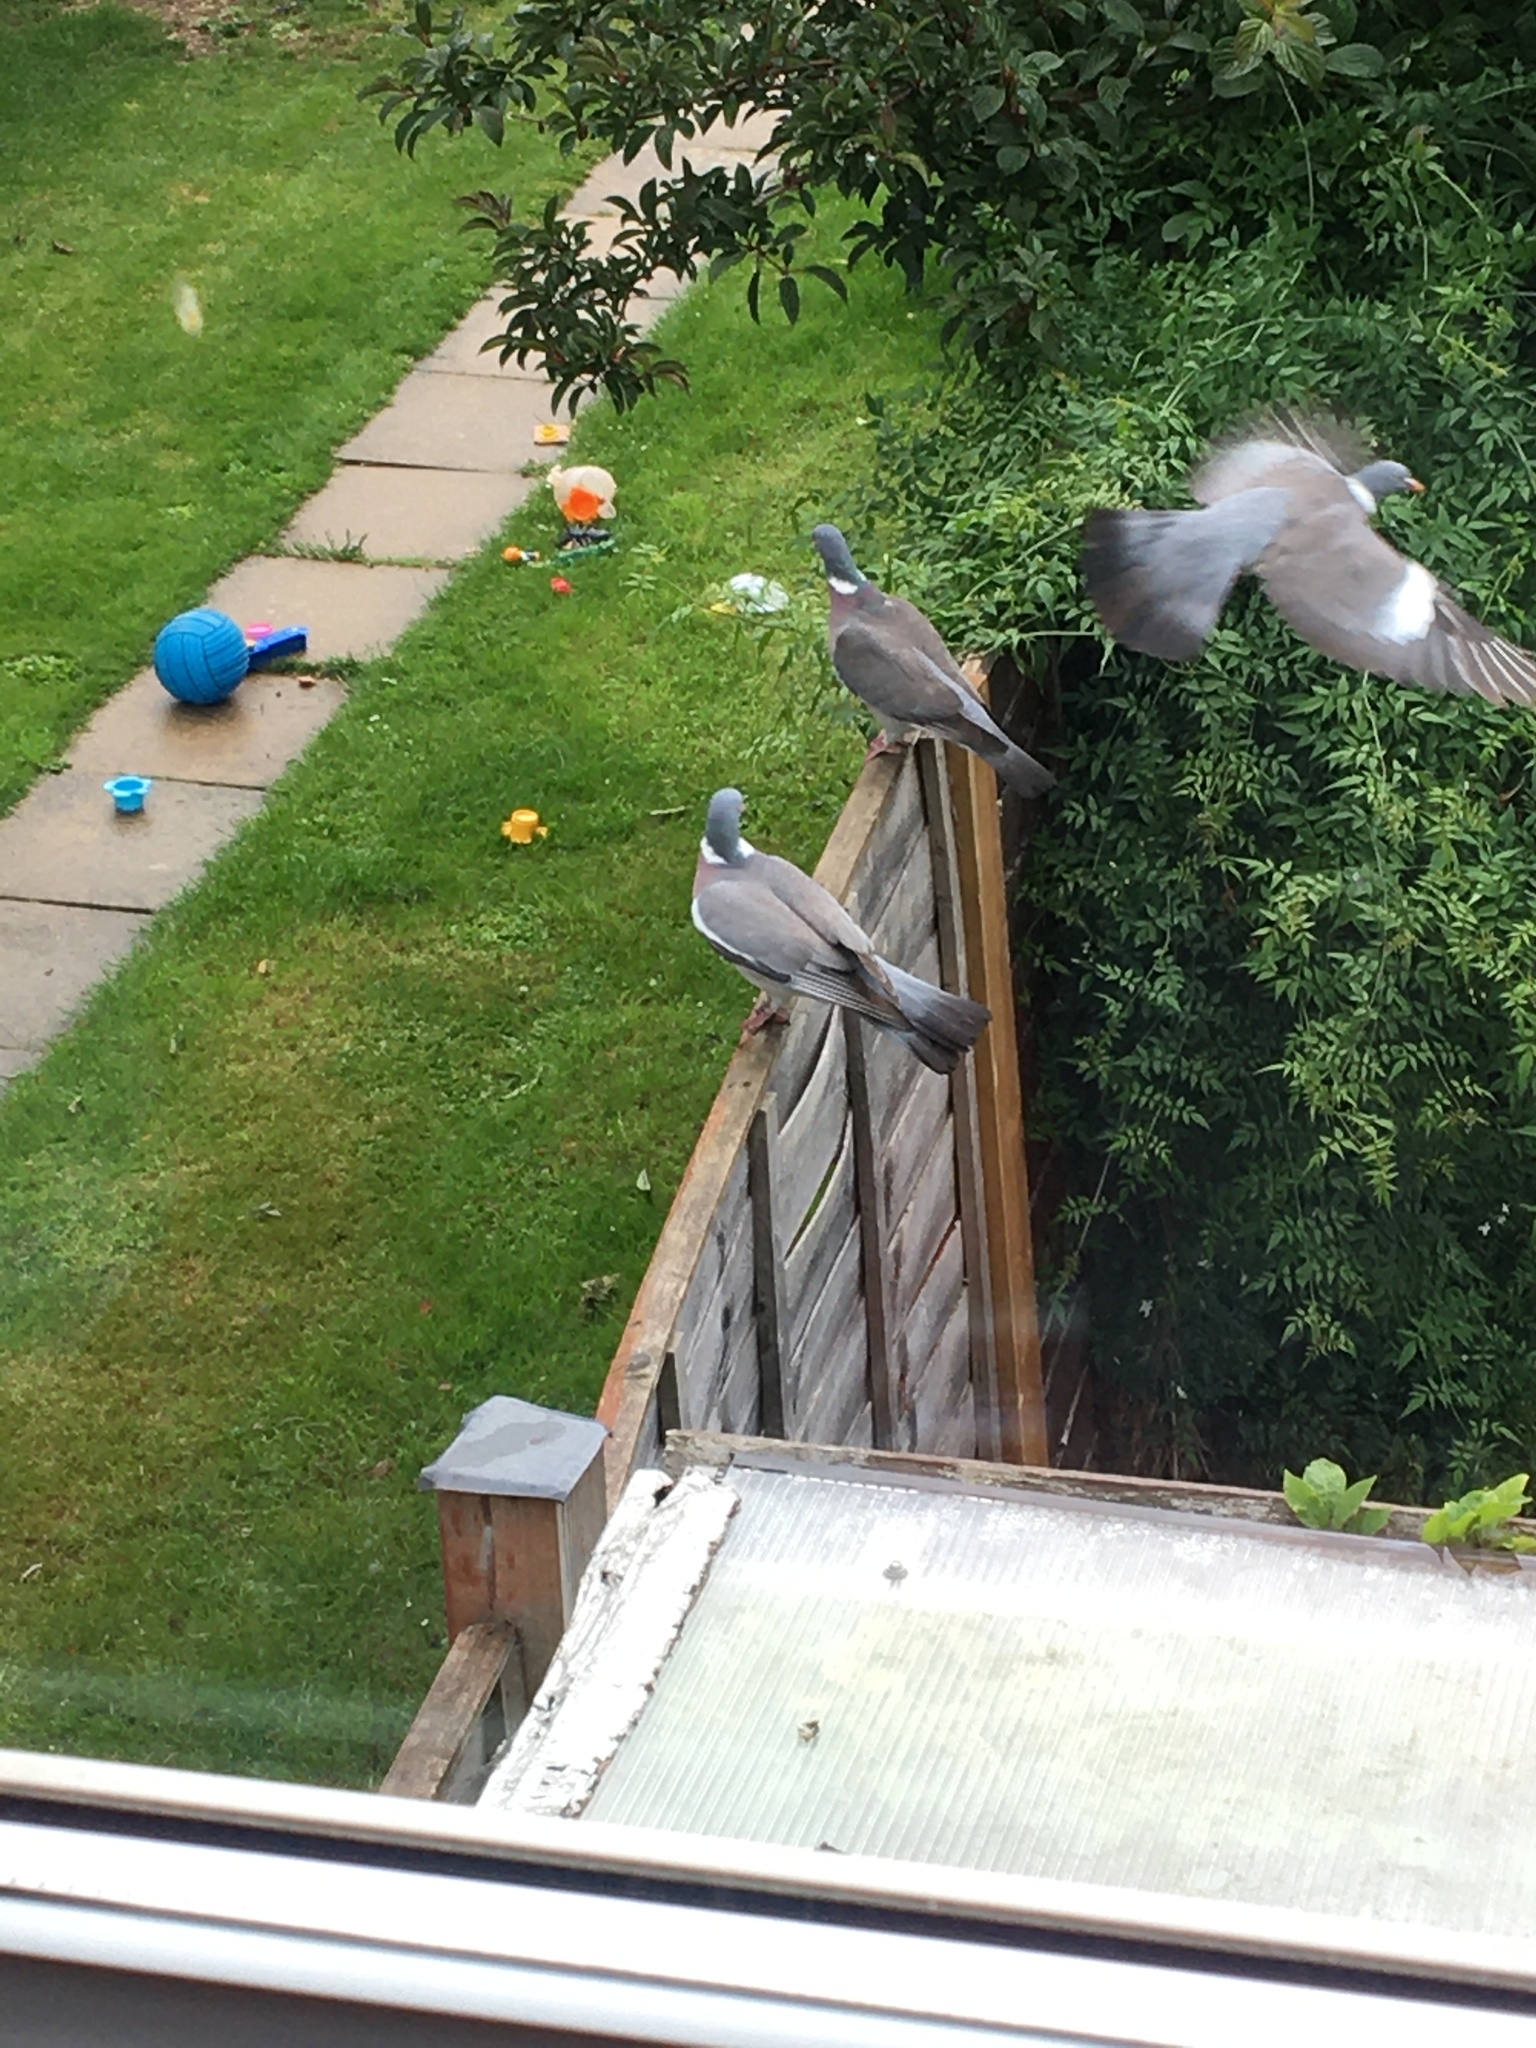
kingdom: Animalia
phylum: Chordata
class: Aves
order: Columbiformes
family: Columbidae
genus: Columba
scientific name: Columba palumbus
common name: Common wood pigeon
